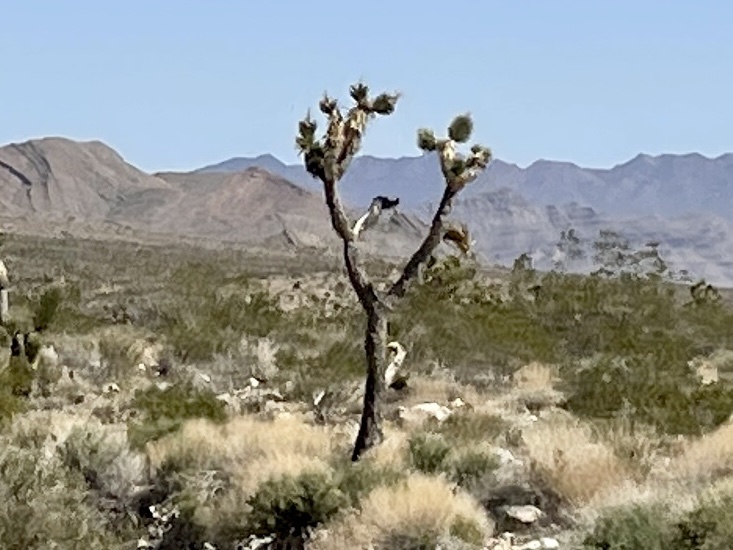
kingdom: Plantae
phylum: Tracheophyta
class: Liliopsida
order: Asparagales
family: Asparagaceae
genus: Yucca
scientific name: Yucca brevifolia
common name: Joshua tree
